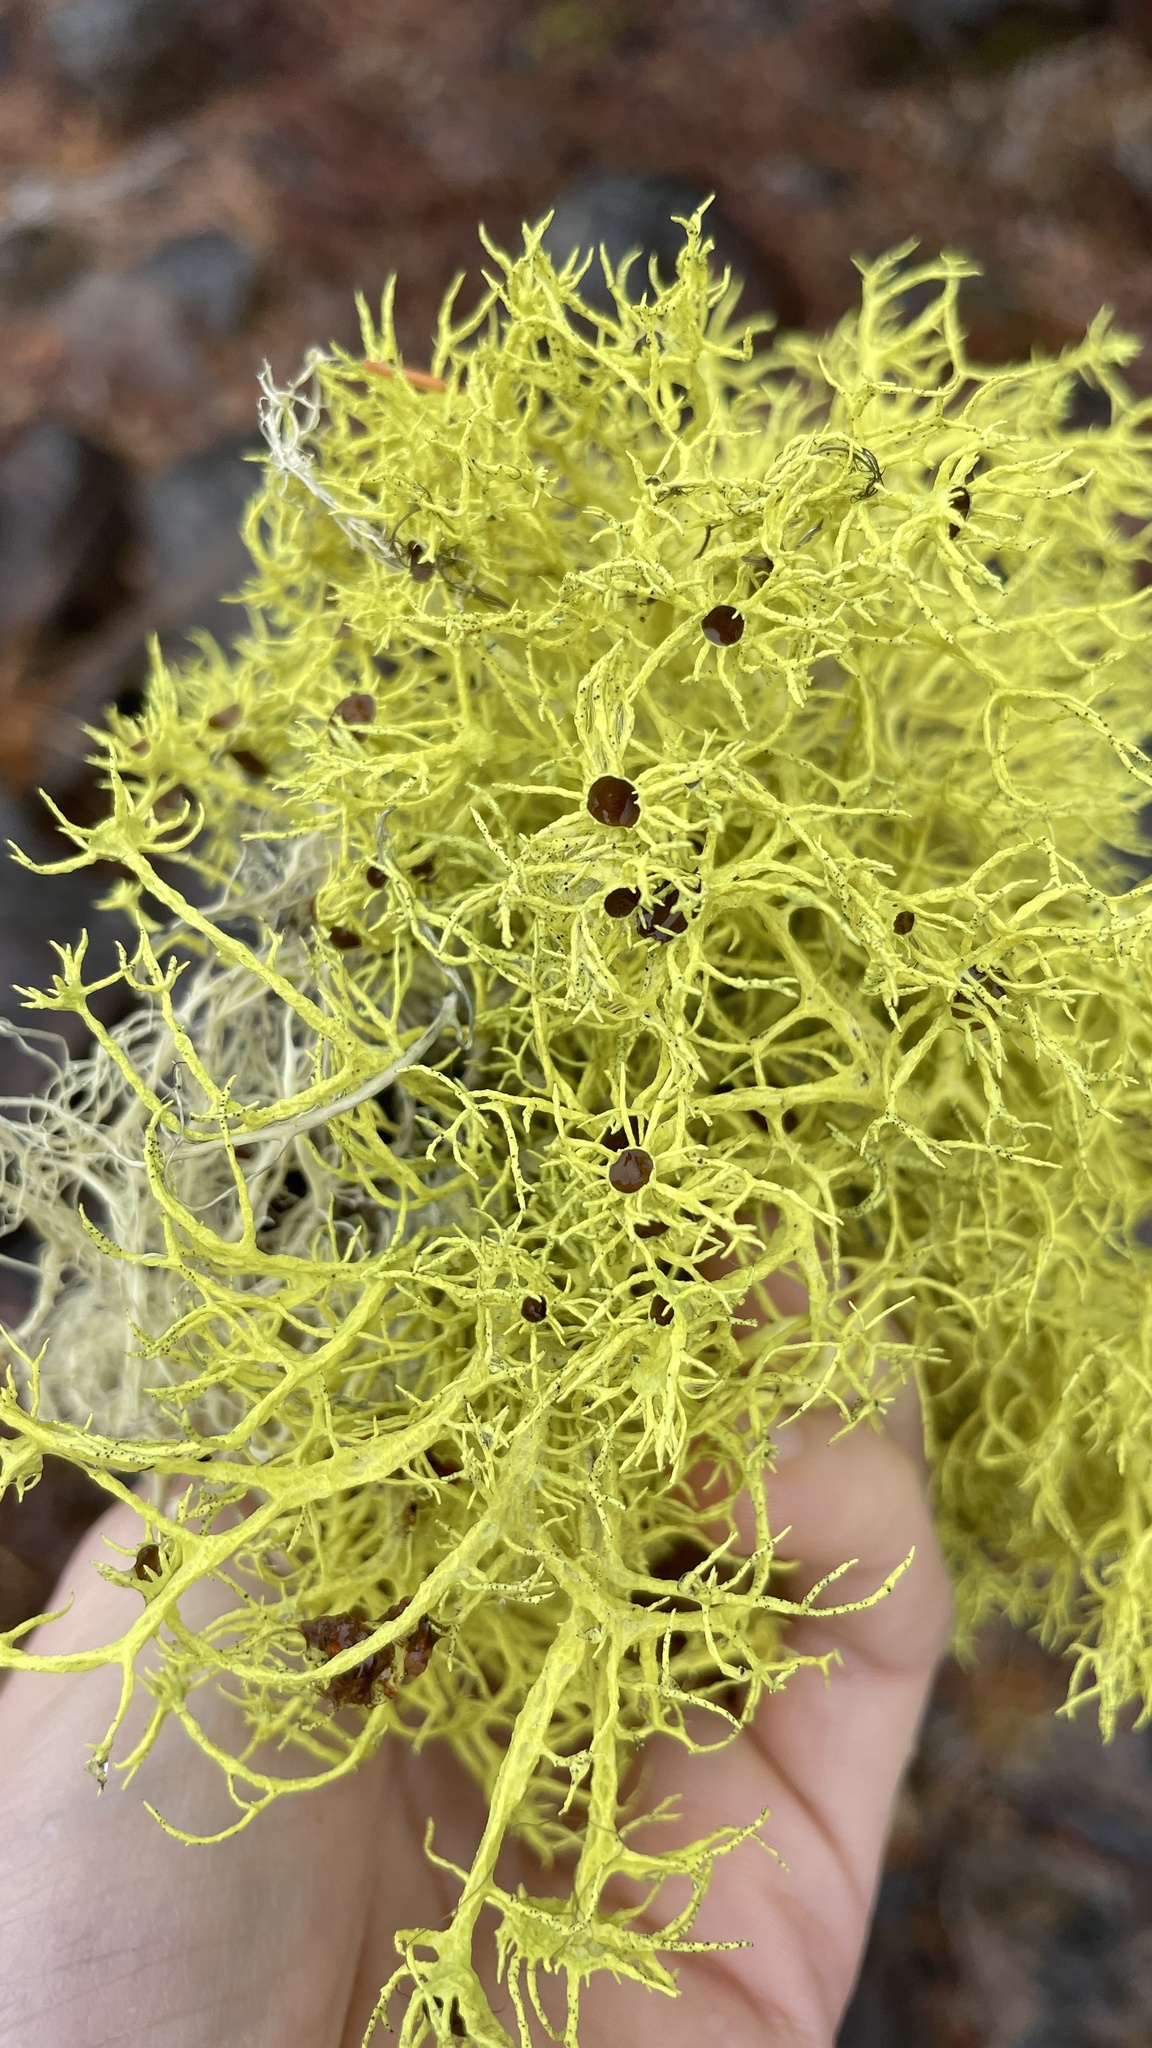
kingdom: Fungi
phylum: Ascomycota
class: Lecanoromycetes
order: Lecanorales
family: Parmeliaceae
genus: Letharia
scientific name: Letharia columbiana
